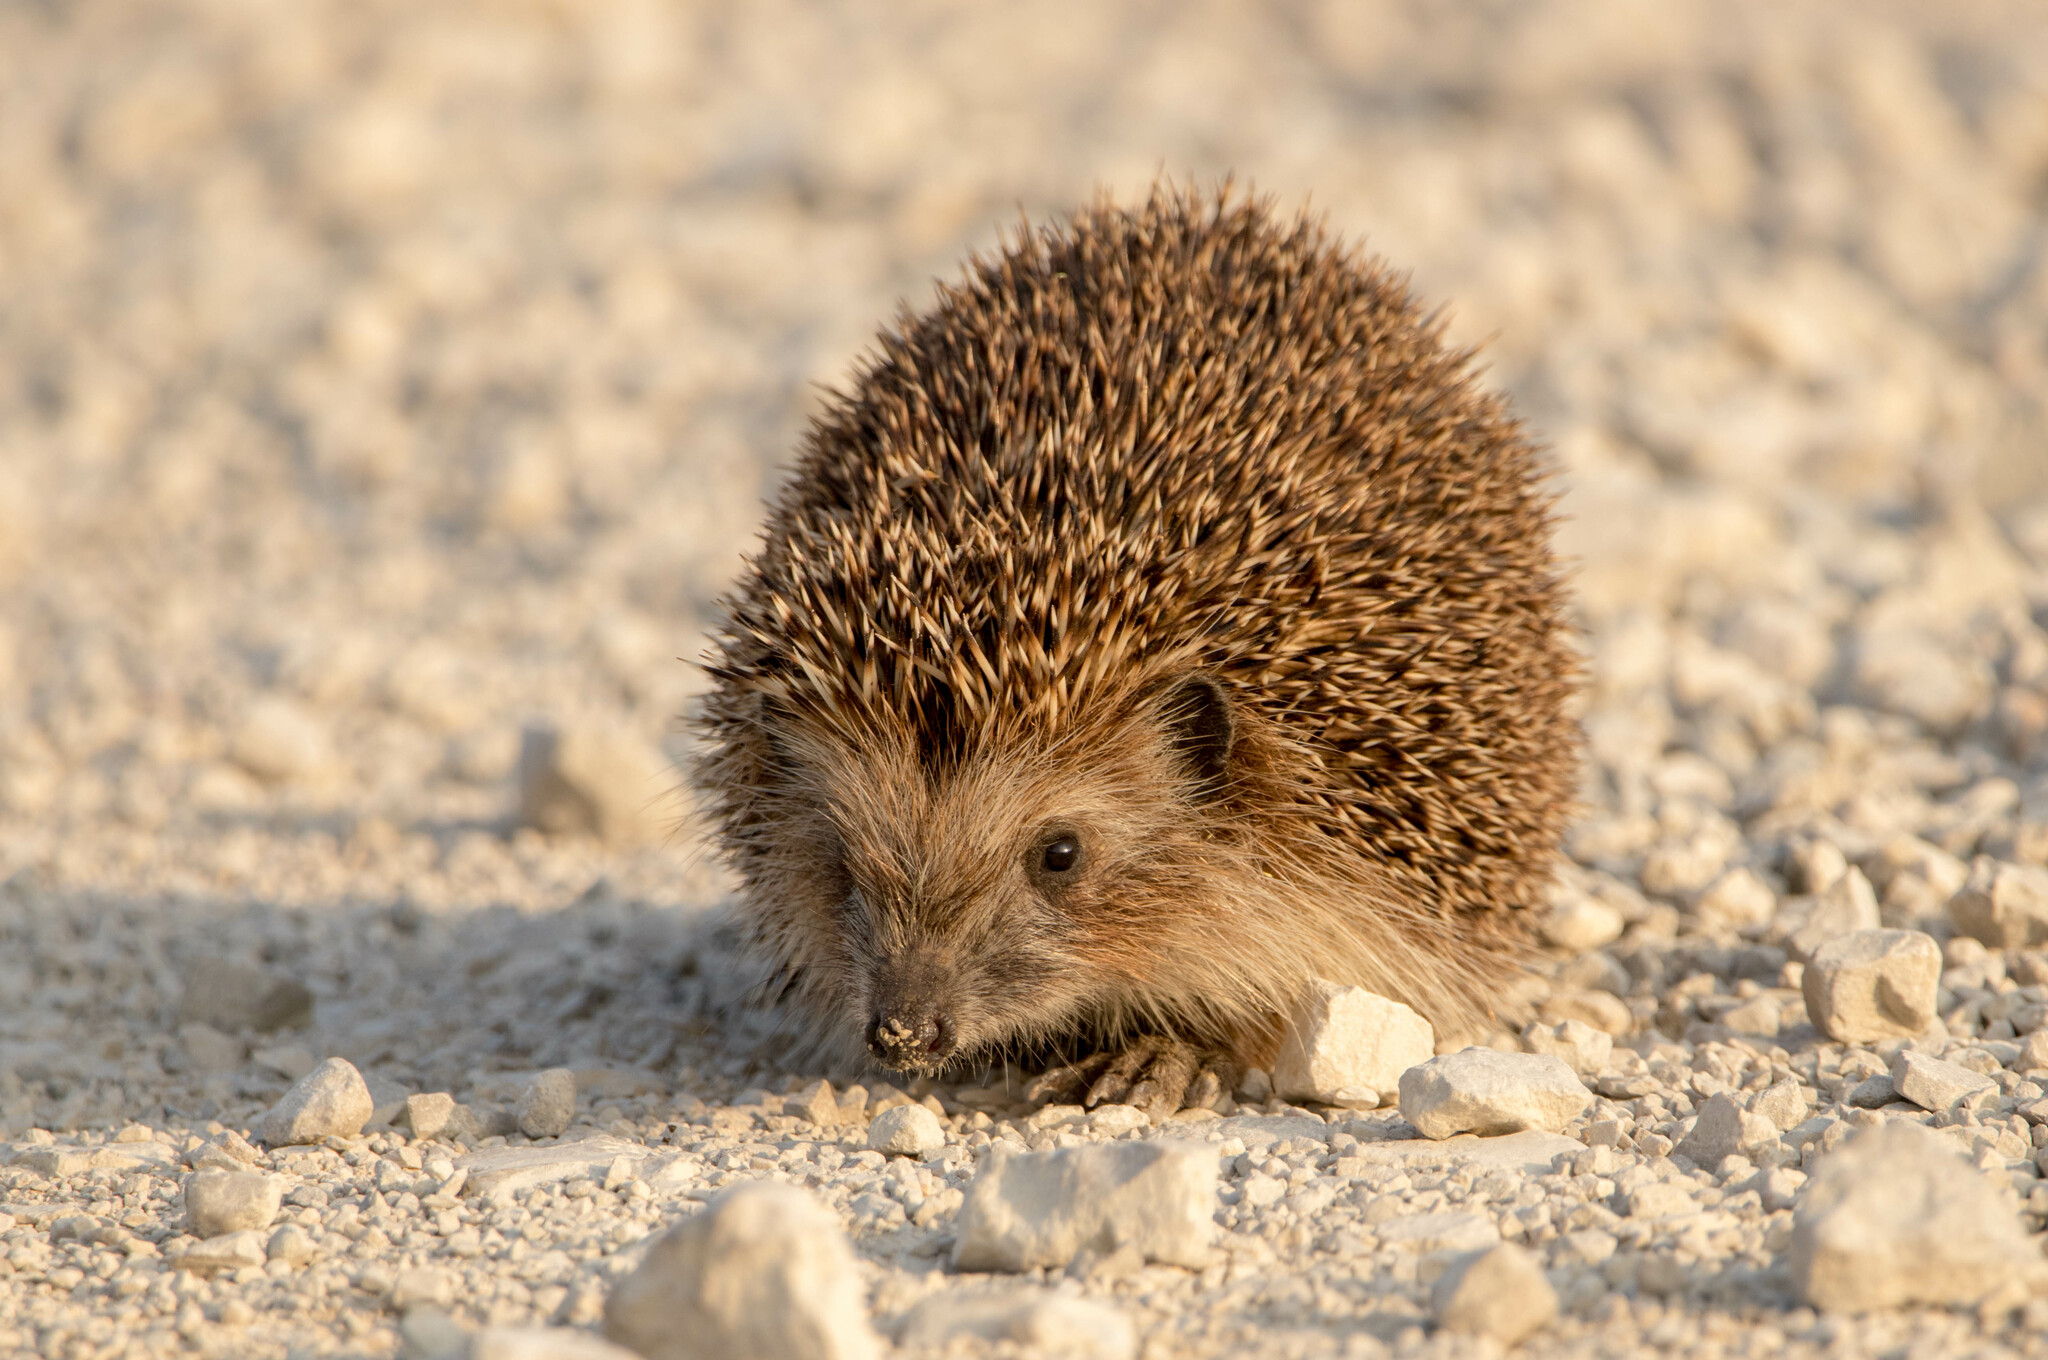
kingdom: Animalia
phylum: Chordata
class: Mammalia
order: Erinaceomorpha
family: Erinaceidae
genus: Erinaceus
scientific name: Erinaceus roumanicus
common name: Northern white-breasted hedgehog
